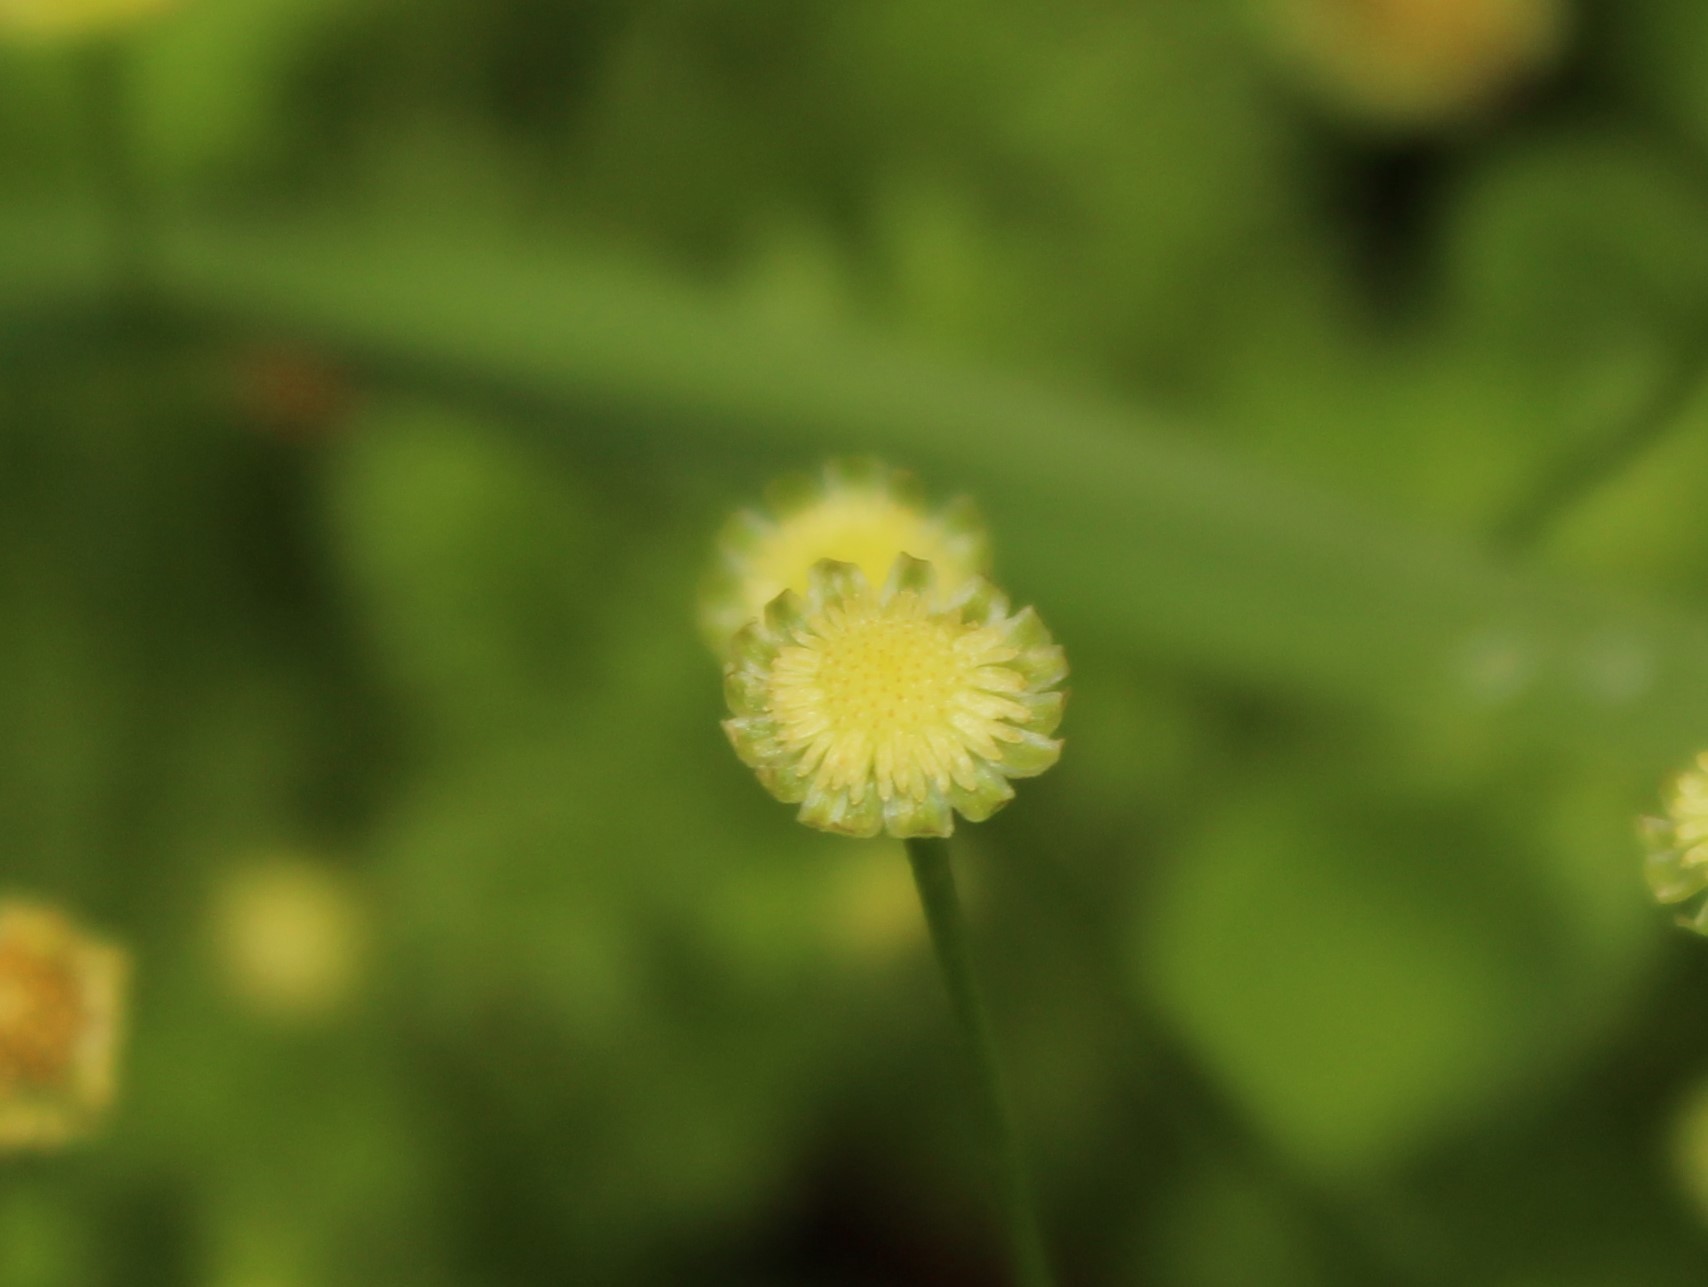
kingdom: Plantae
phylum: Tracheophyta
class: Magnoliopsida
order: Asterales
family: Asteraceae
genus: Cotula
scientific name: Cotula australis
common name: Australian waterbuttons
